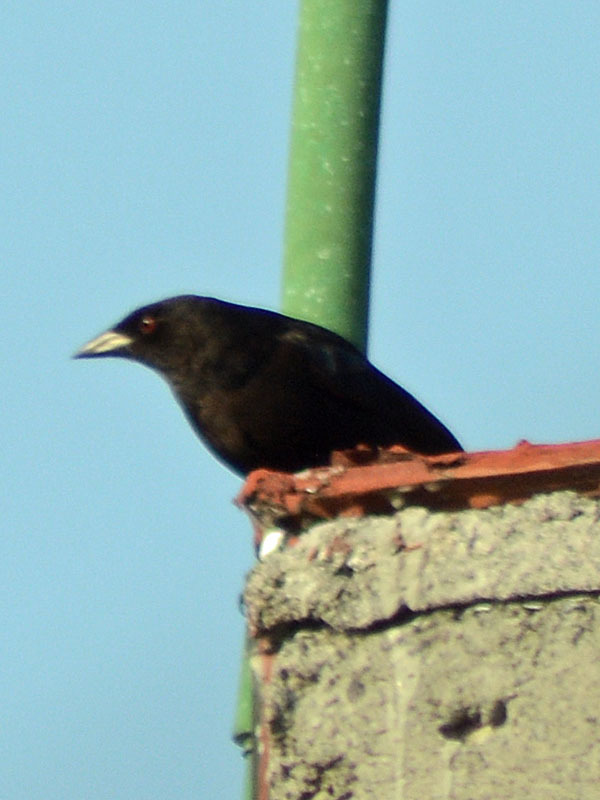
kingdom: Animalia
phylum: Chordata
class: Aves
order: Passeriformes
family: Icteridae
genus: Molothrus
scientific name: Molothrus aeneus
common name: Bronzed cowbird
